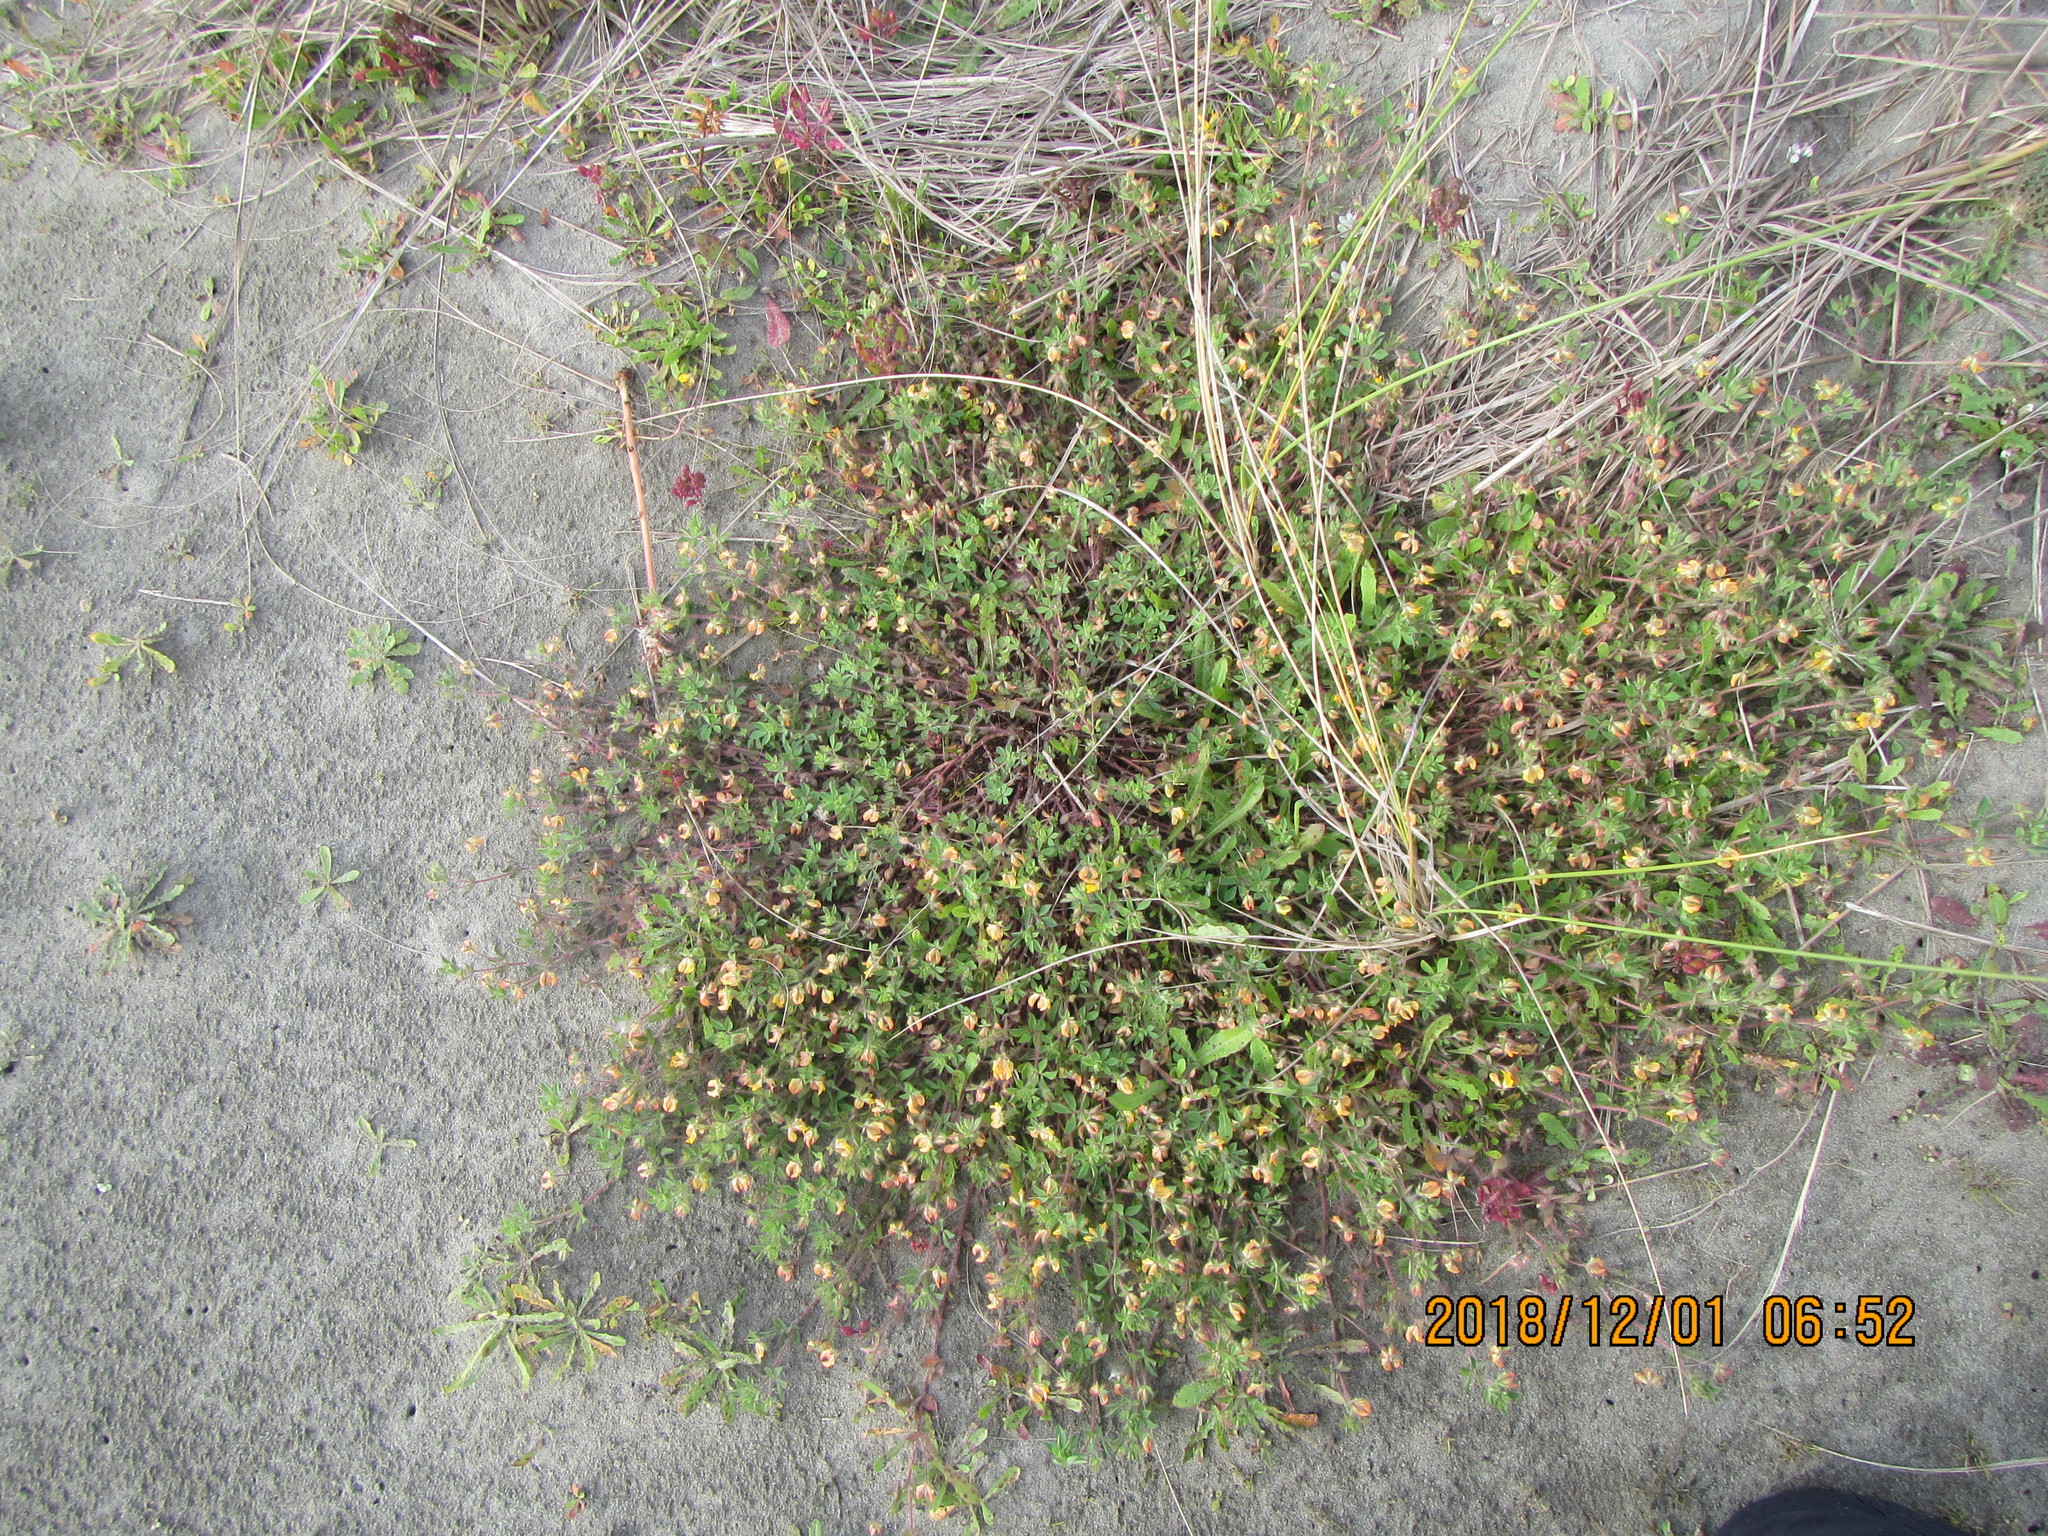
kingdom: Plantae
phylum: Tracheophyta
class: Magnoliopsida
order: Lamiales
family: Orobanchaceae
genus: Orobanche
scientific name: Orobanche minor
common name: Common broomrape
